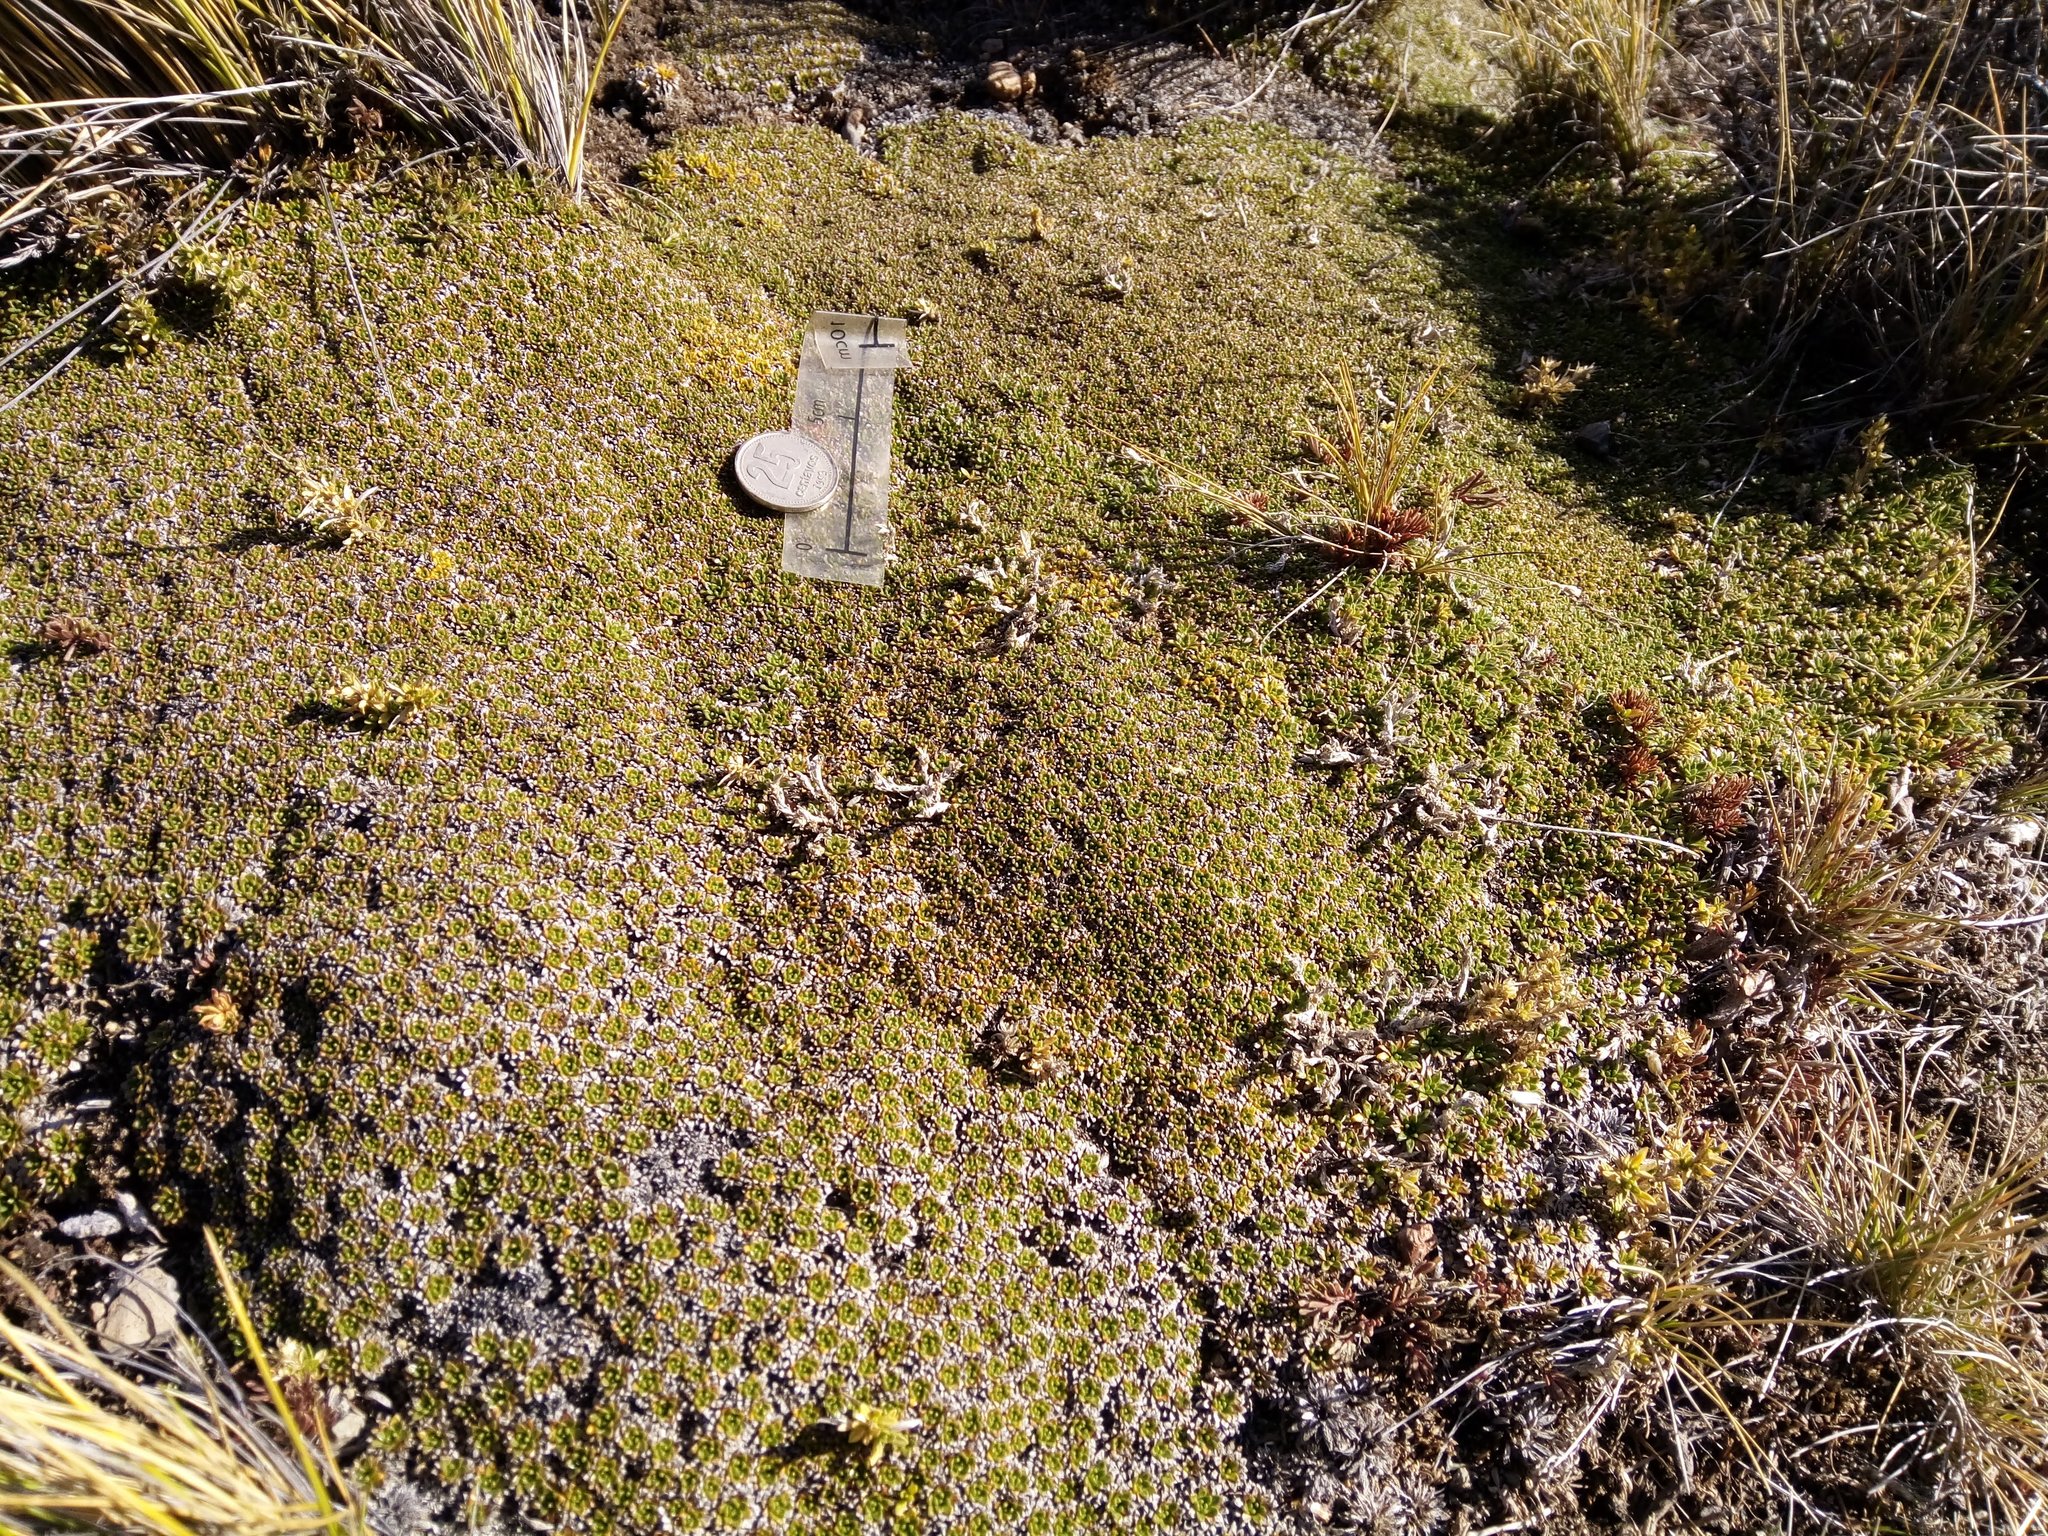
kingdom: Plantae
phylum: Tracheophyta
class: Magnoliopsida
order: Apiales
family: Apiaceae
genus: Azorella
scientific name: Azorella monantha
